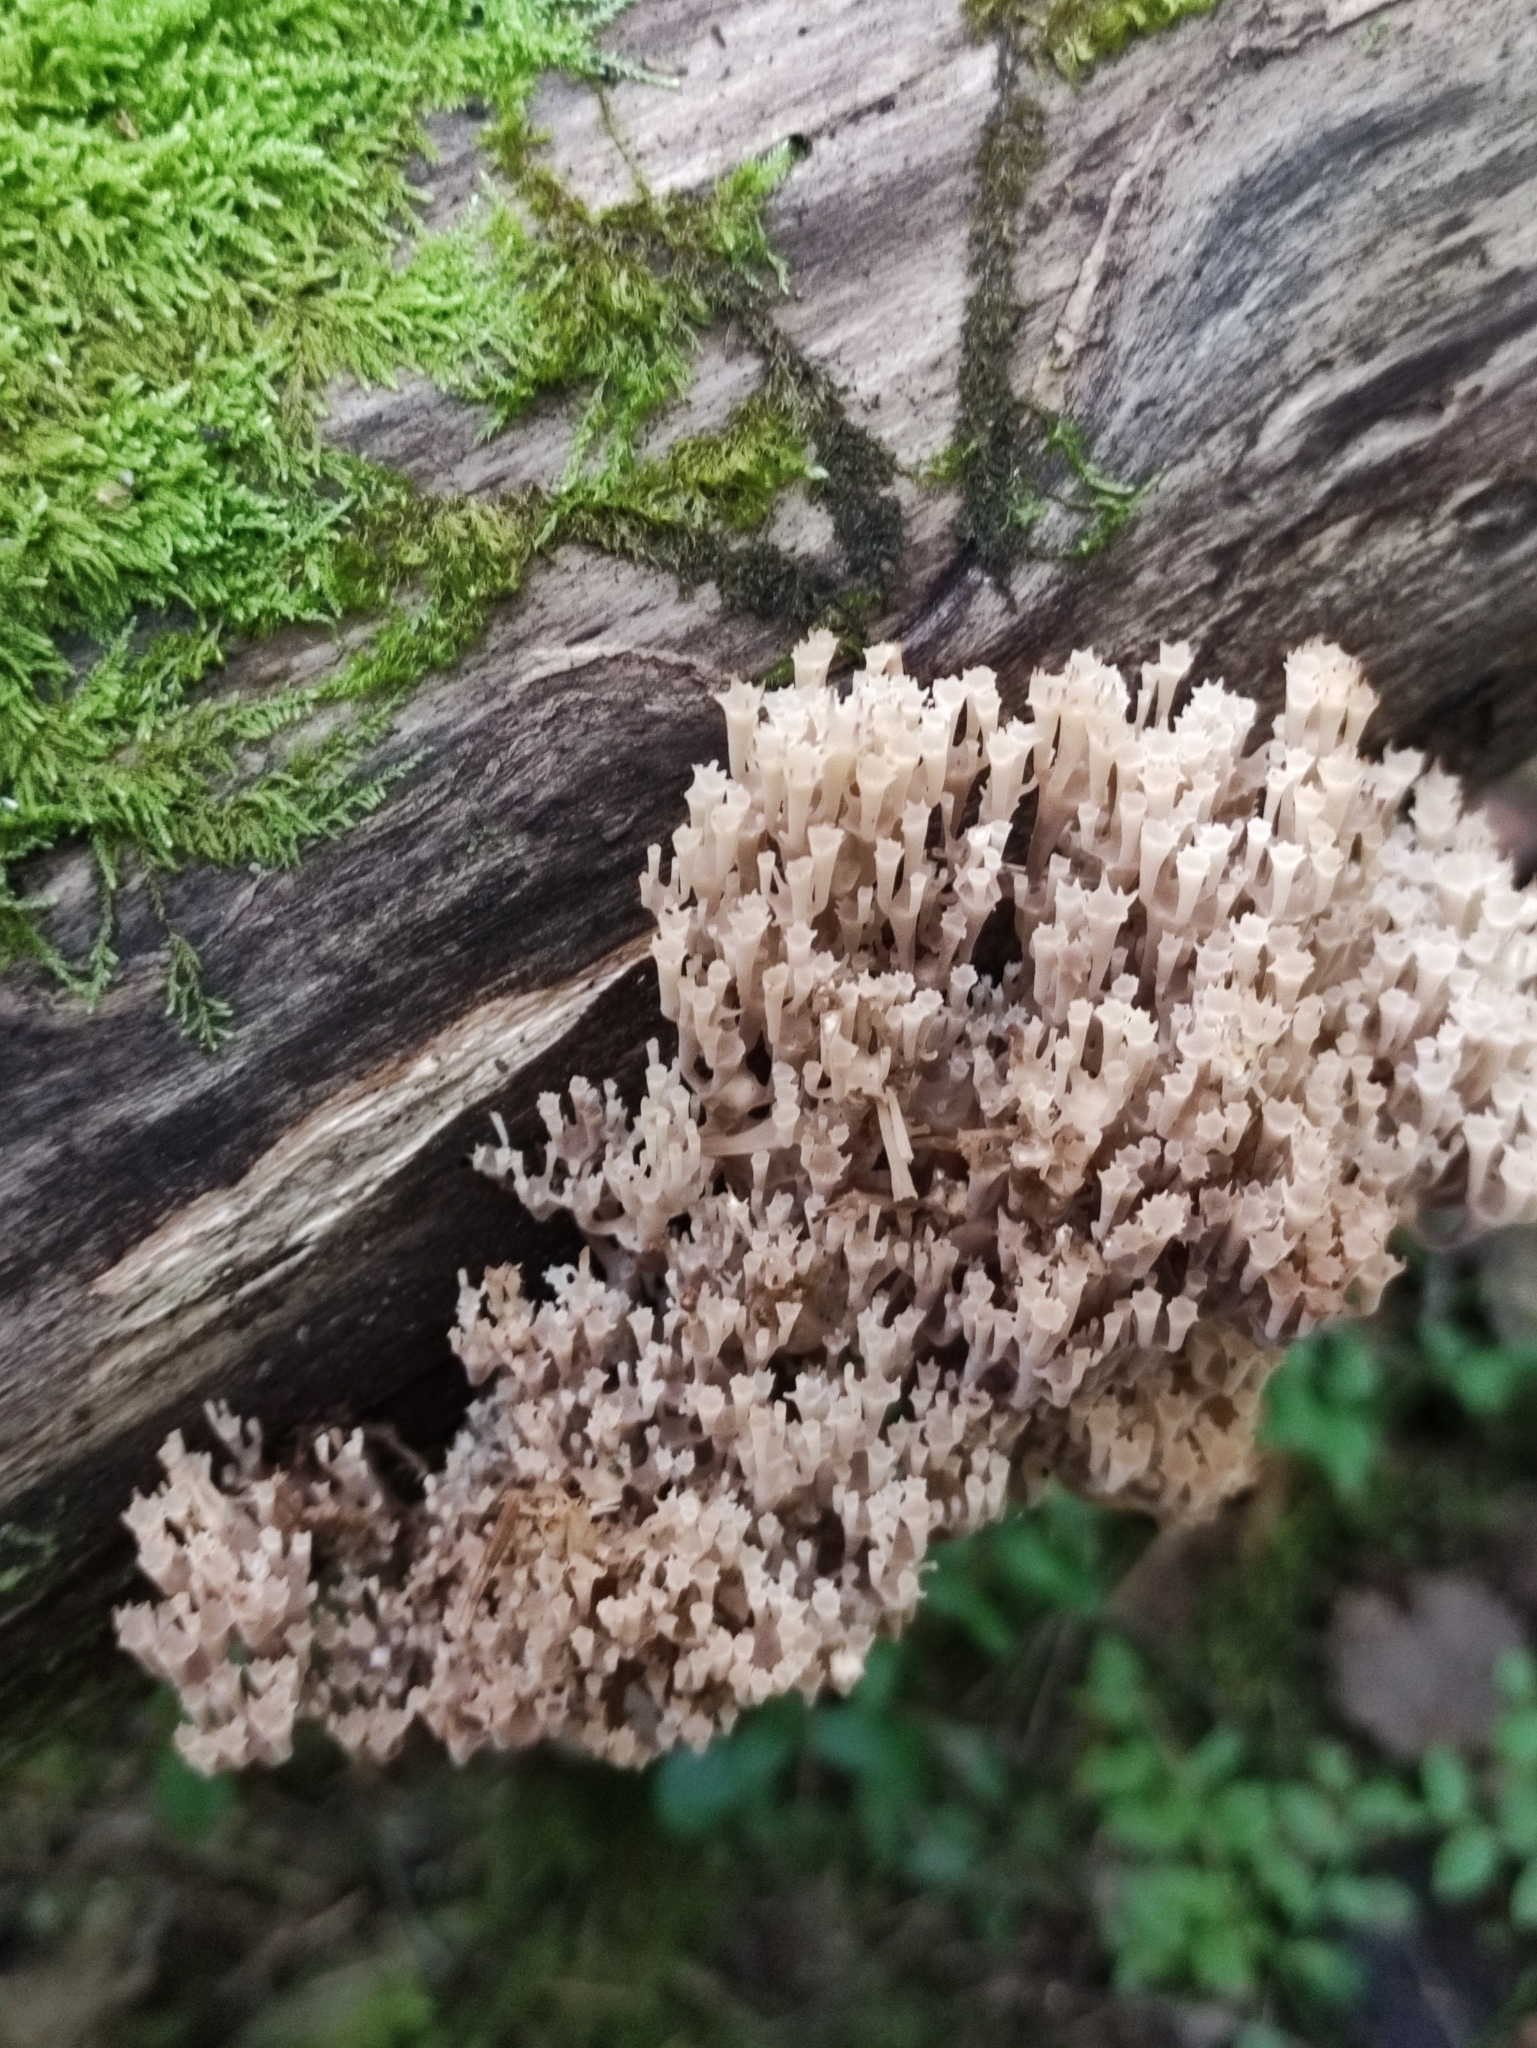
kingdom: Fungi
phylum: Basidiomycota
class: Agaricomycetes
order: Russulales
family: Auriscalpiaceae
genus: Artomyces
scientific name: Artomyces pyxidatus
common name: Crown-tipped coral fungus
